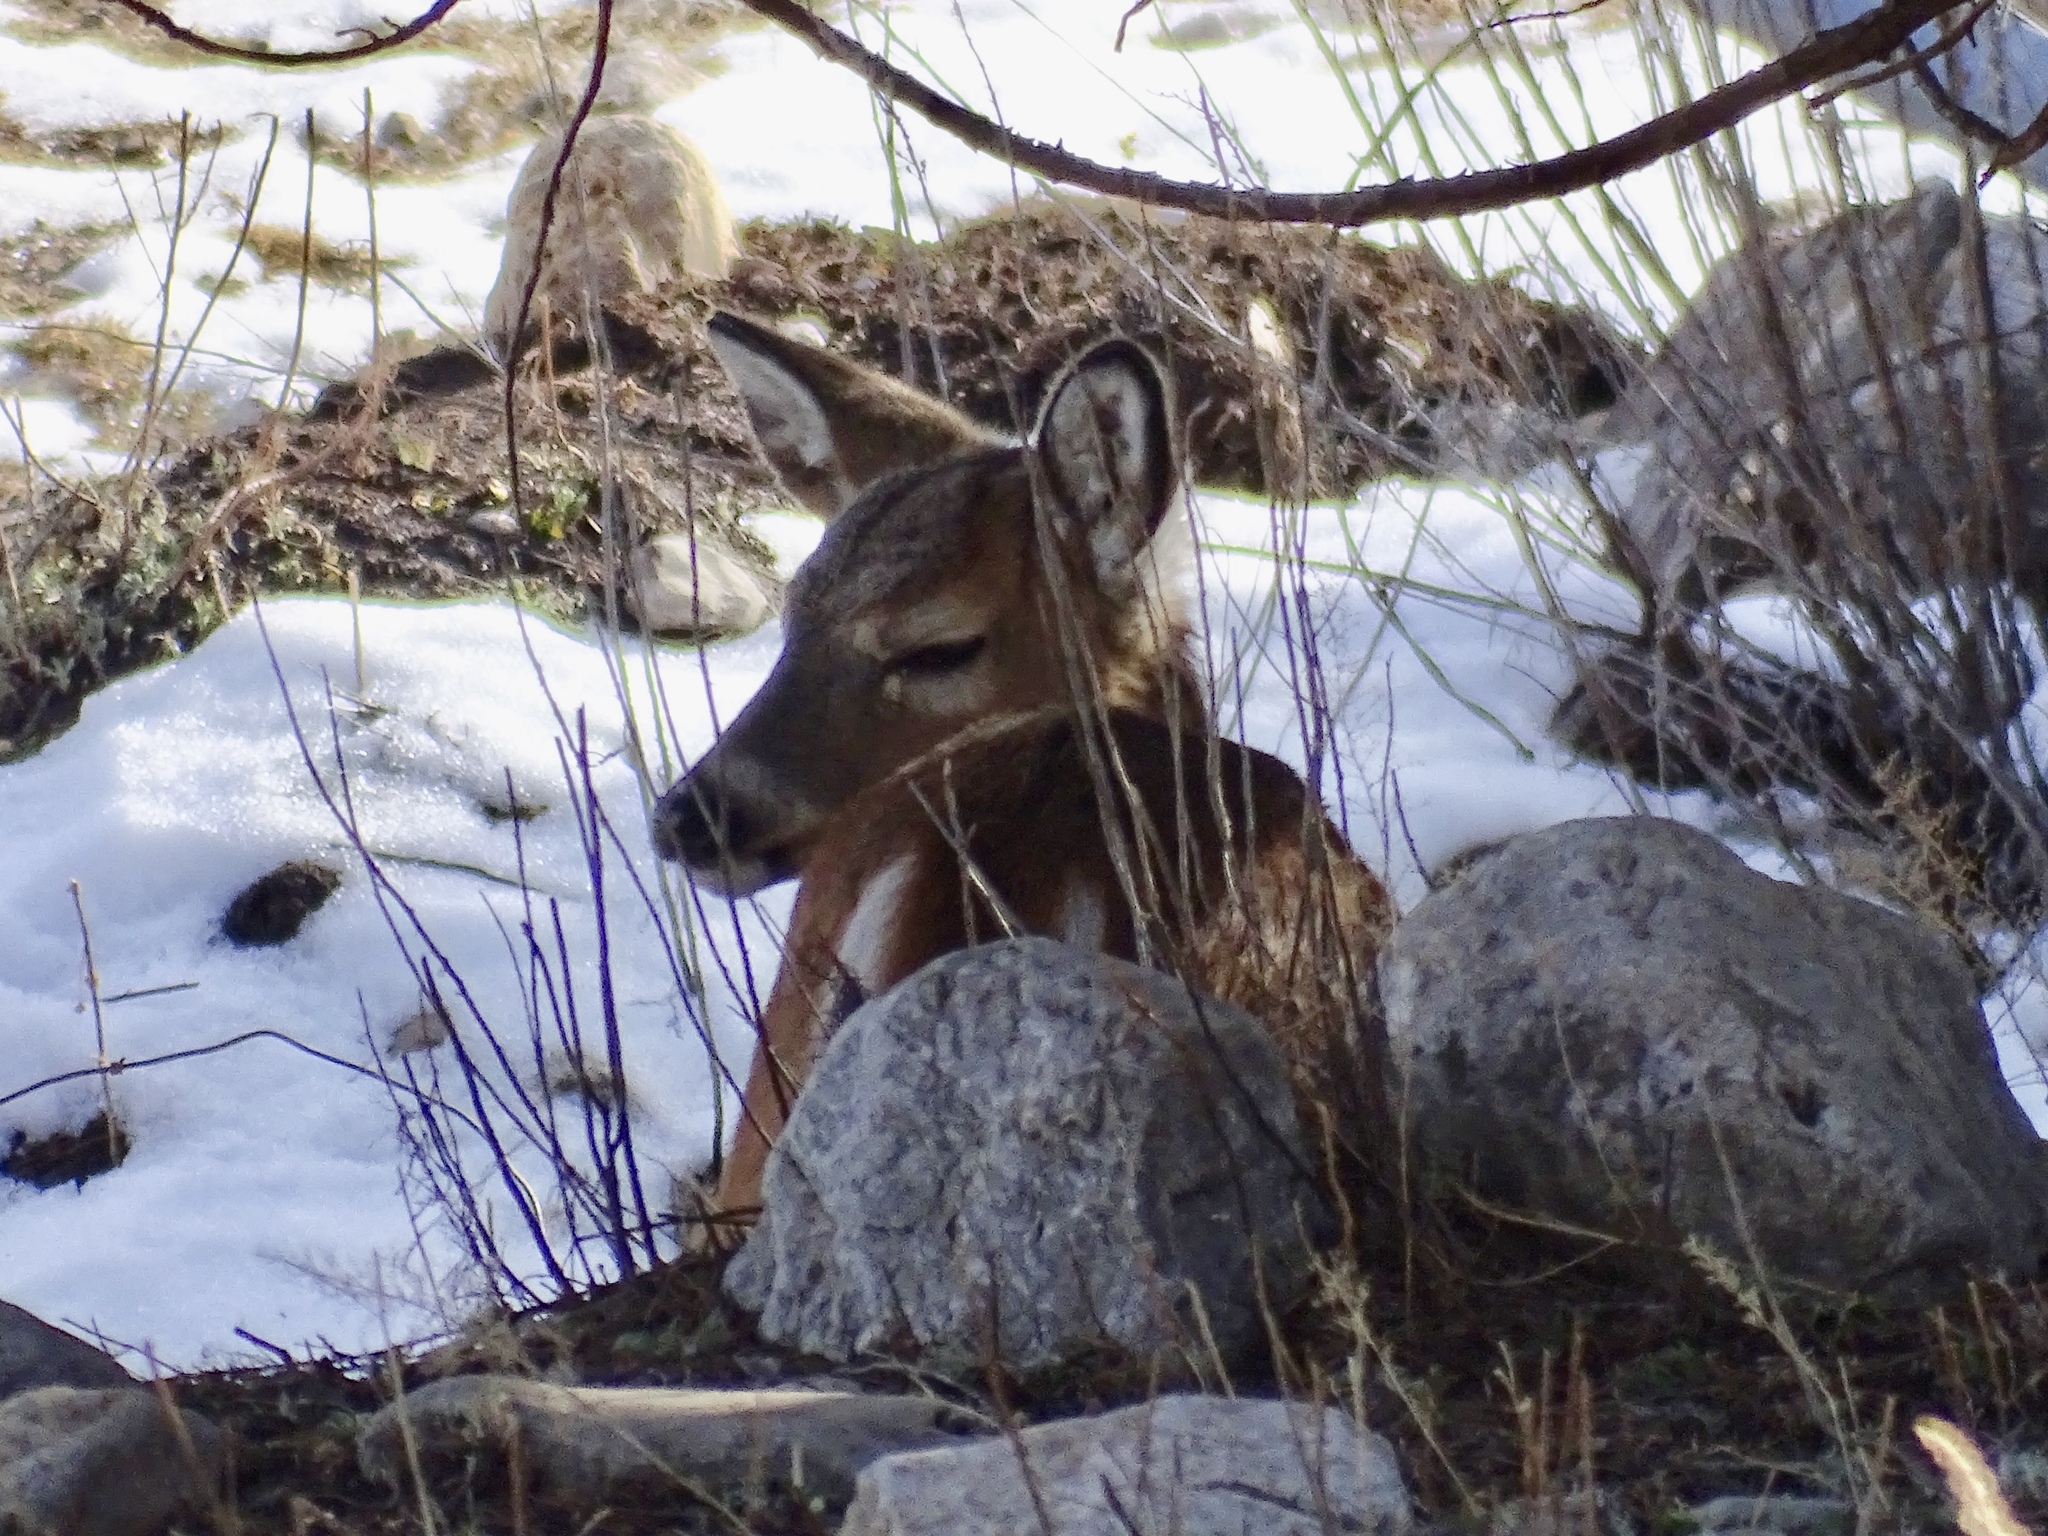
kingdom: Animalia
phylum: Chordata
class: Mammalia
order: Artiodactyla
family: Cervidae
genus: Odocoileus
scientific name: Odocoileus virginianus
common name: White-tailed deer
